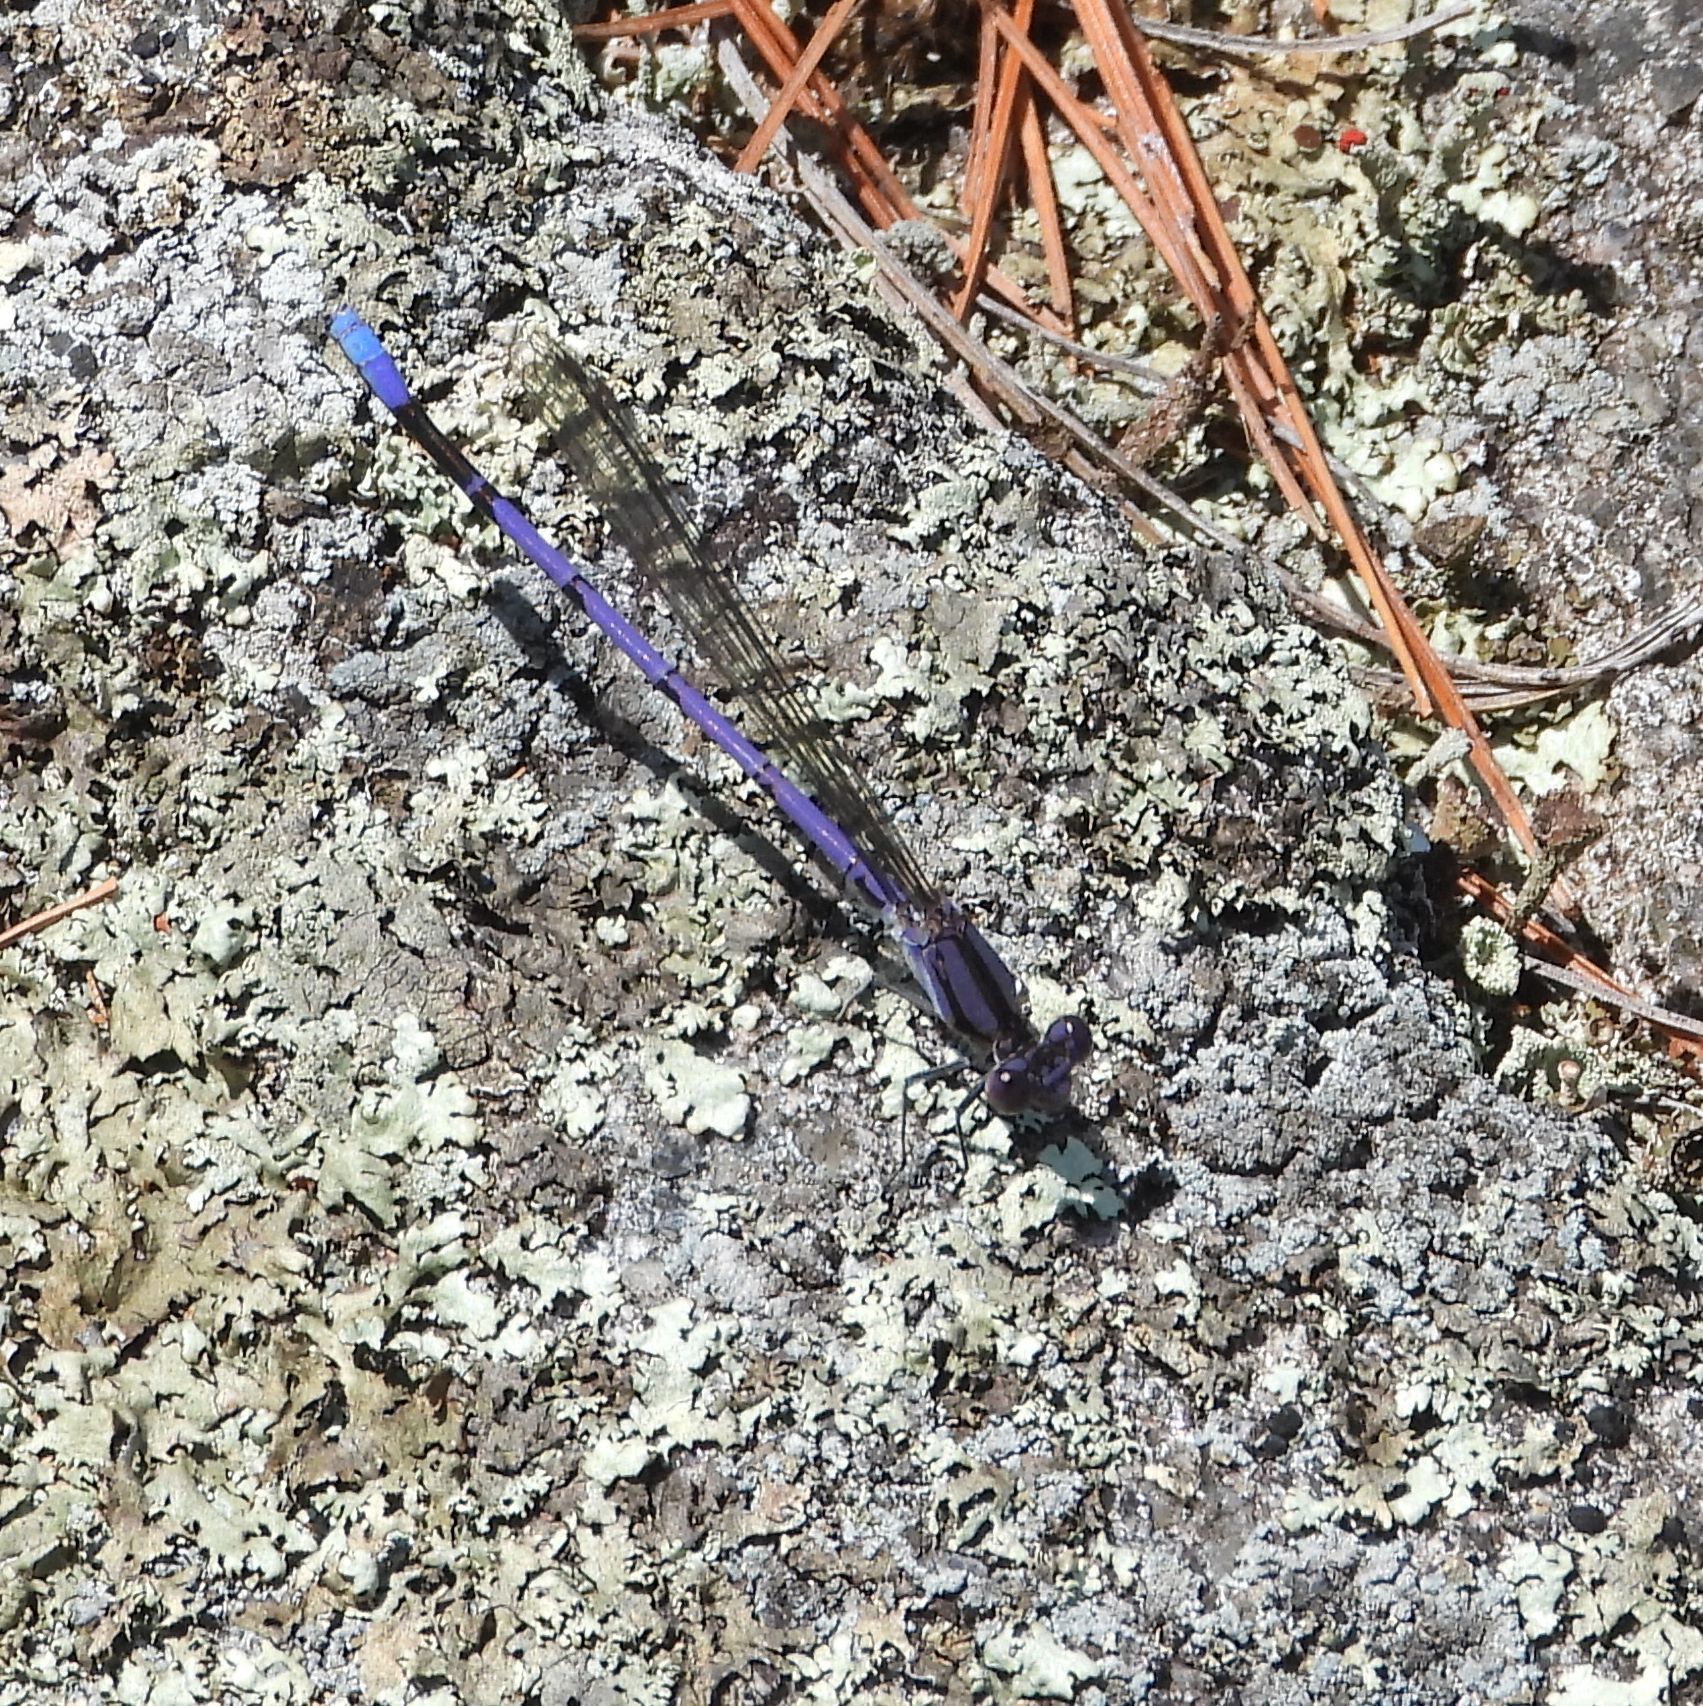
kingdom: Animalia
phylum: Arthropoda
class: Insecta
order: Odonata
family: Coenagrionidae
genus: Argia
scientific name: Argia fumipennis
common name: Variable dancer
